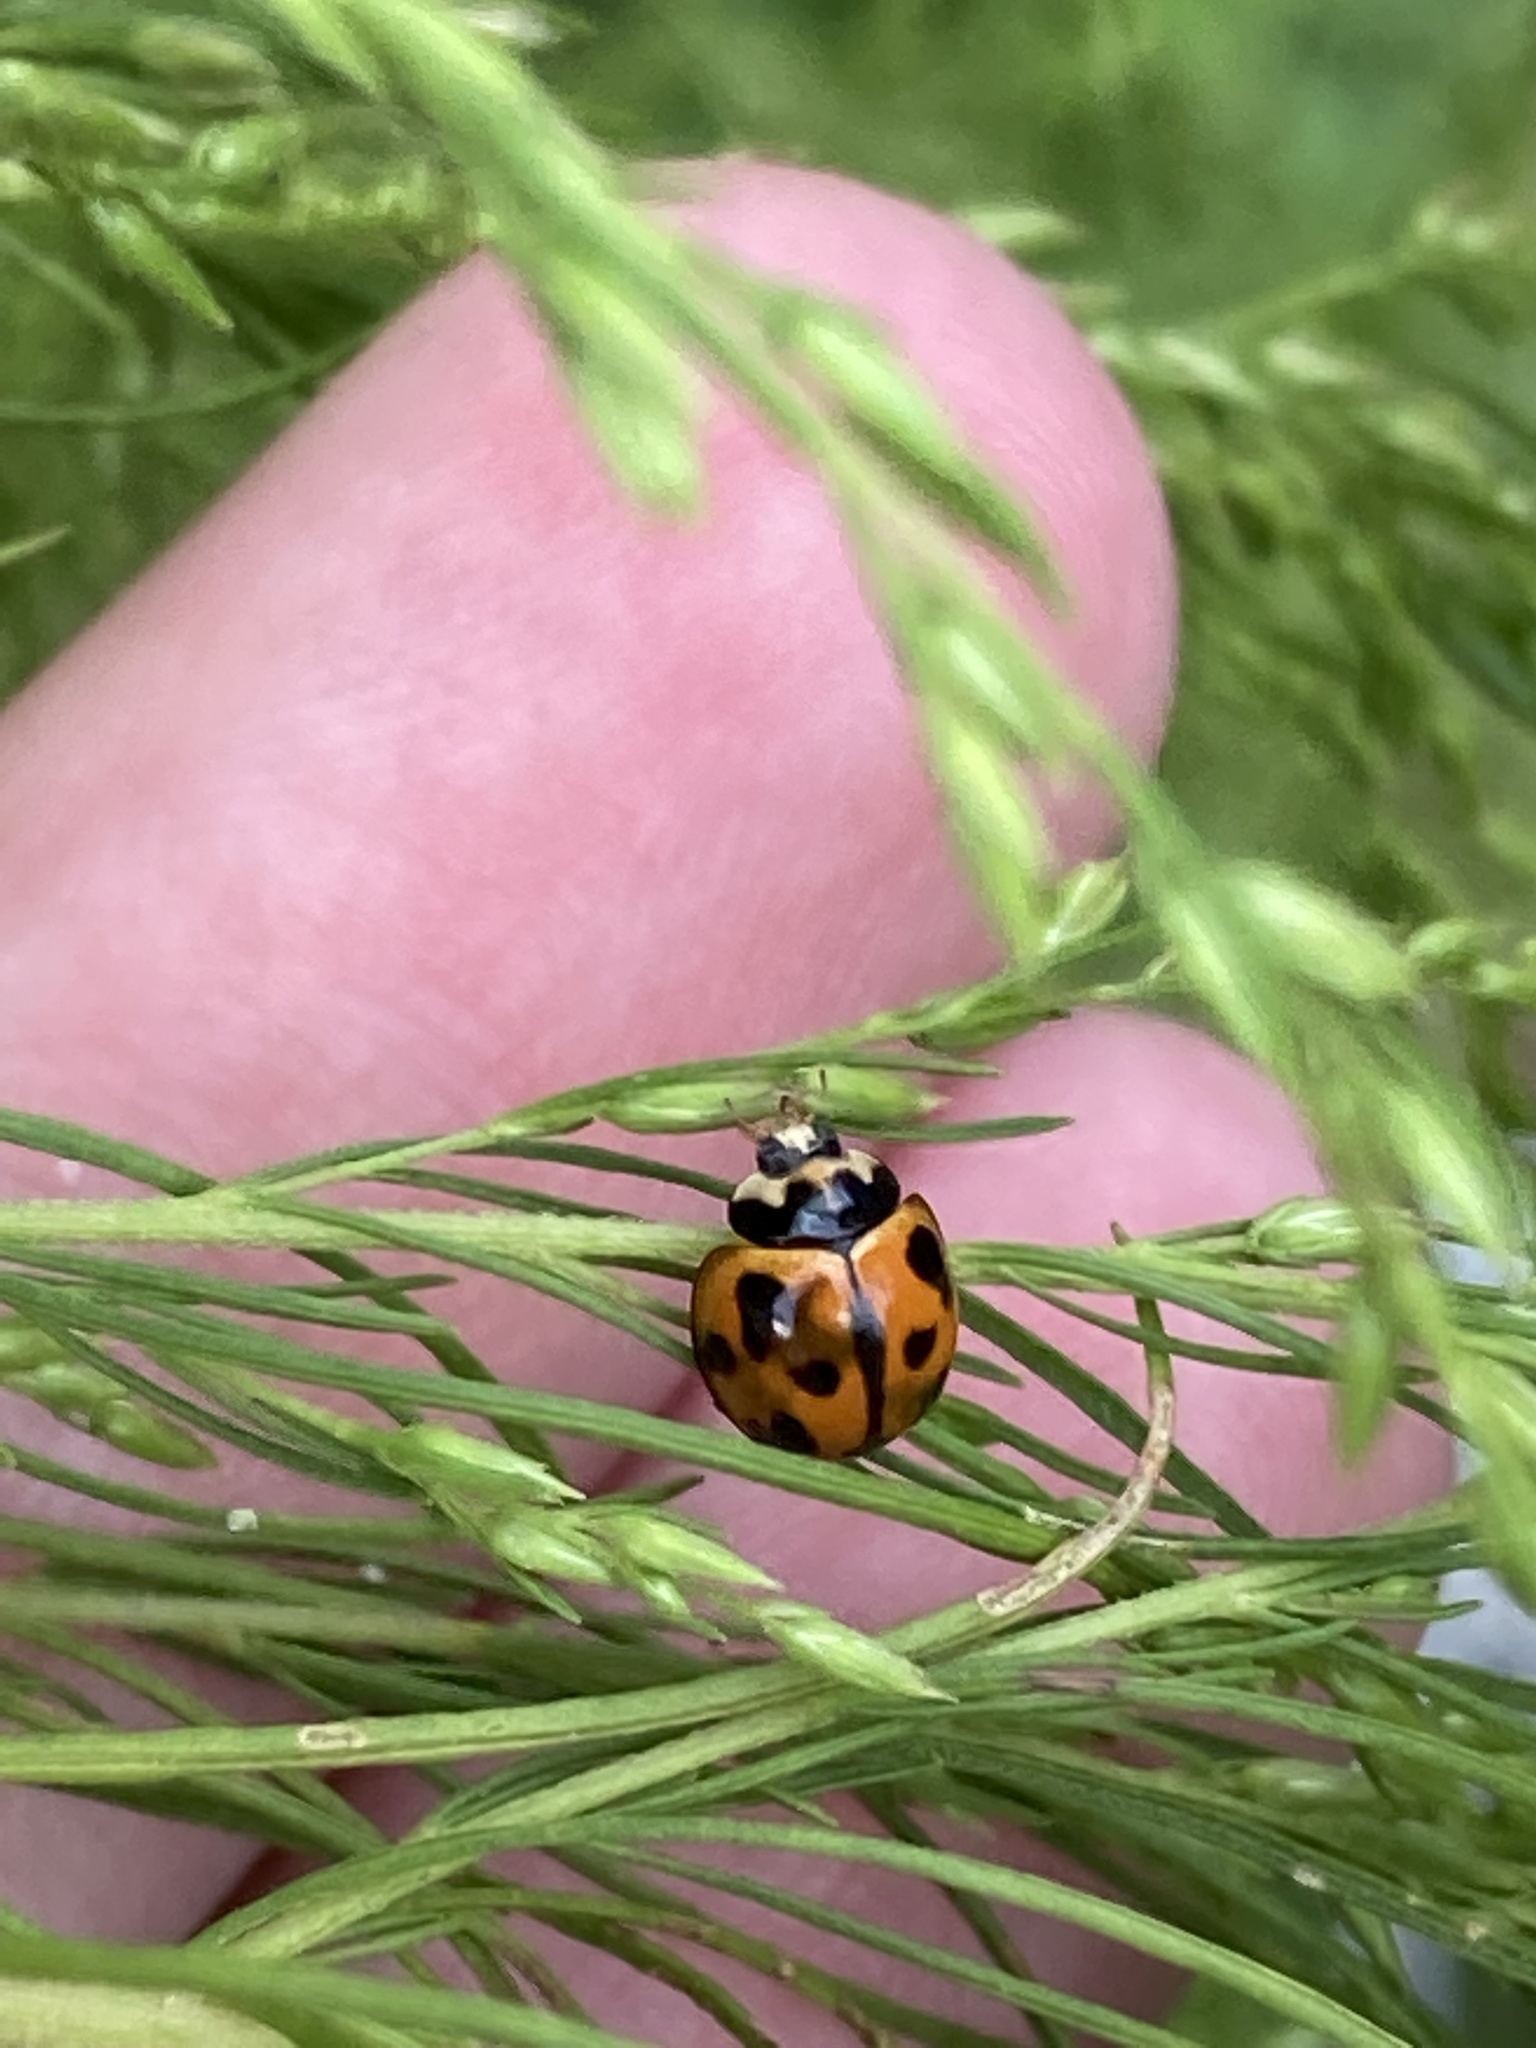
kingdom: Animalia
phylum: Arthropoda
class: Insecta
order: Coleoptera
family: Coccinellidae
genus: Coelophora
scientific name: Coelophora inaequalis
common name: Common australian lady beetle
